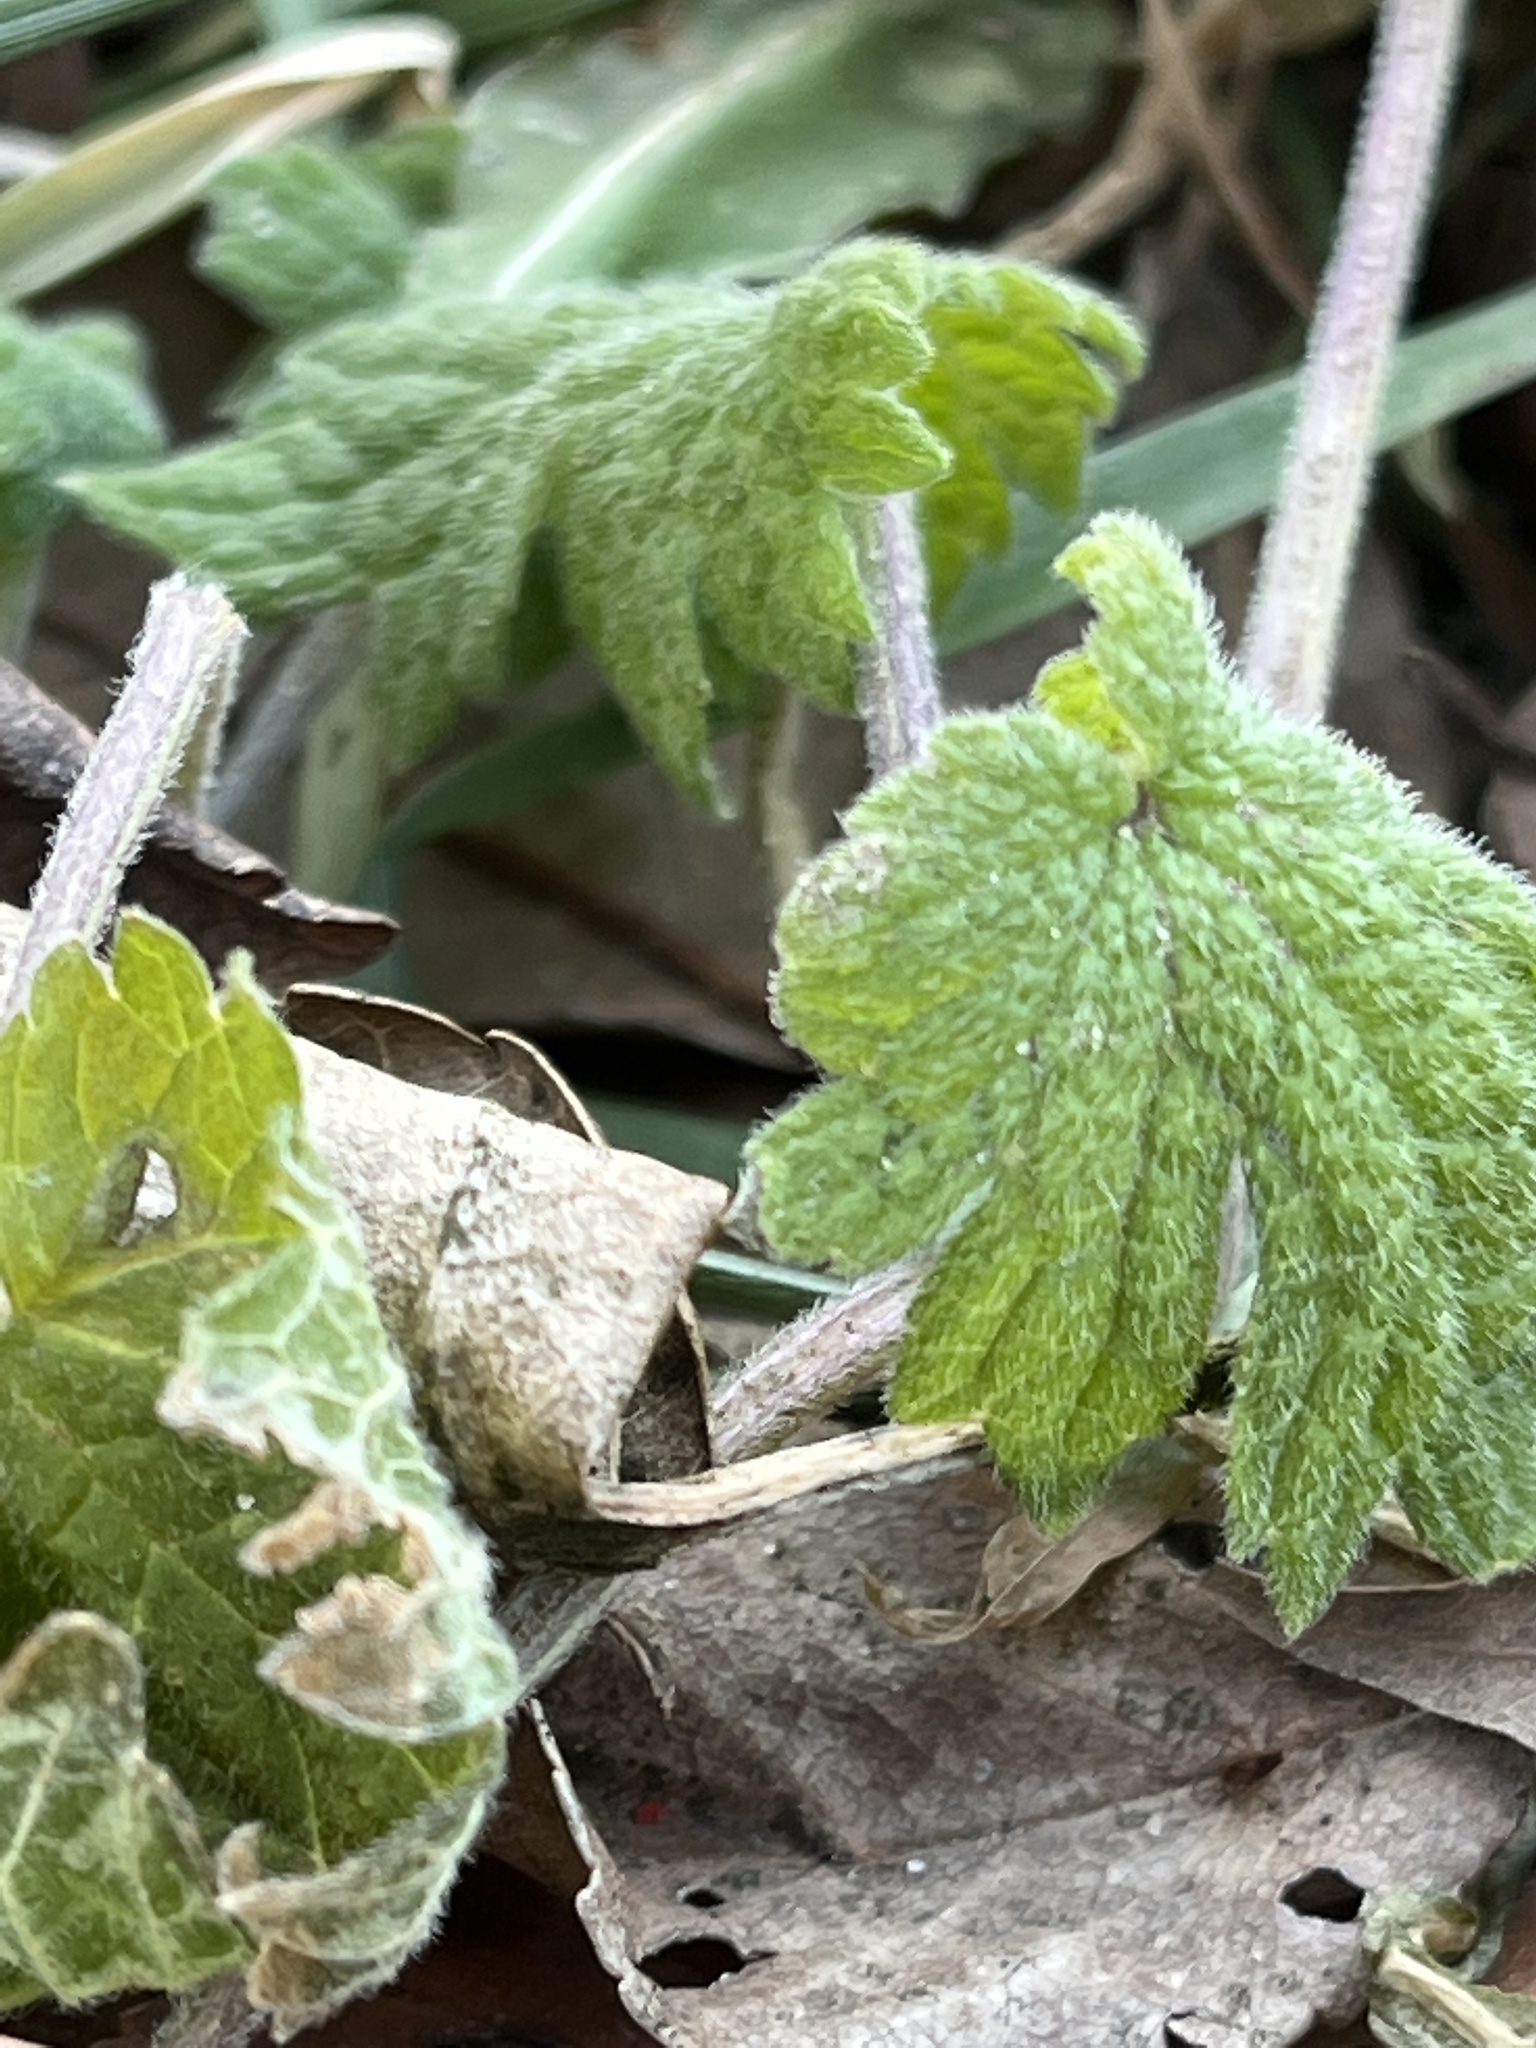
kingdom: Plantae
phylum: Tracheophyta
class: Magnoliopsida
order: Lamiales
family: Lamiaceae
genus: Leonurus
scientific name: Leonurus cardiaca
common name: Motherwort
